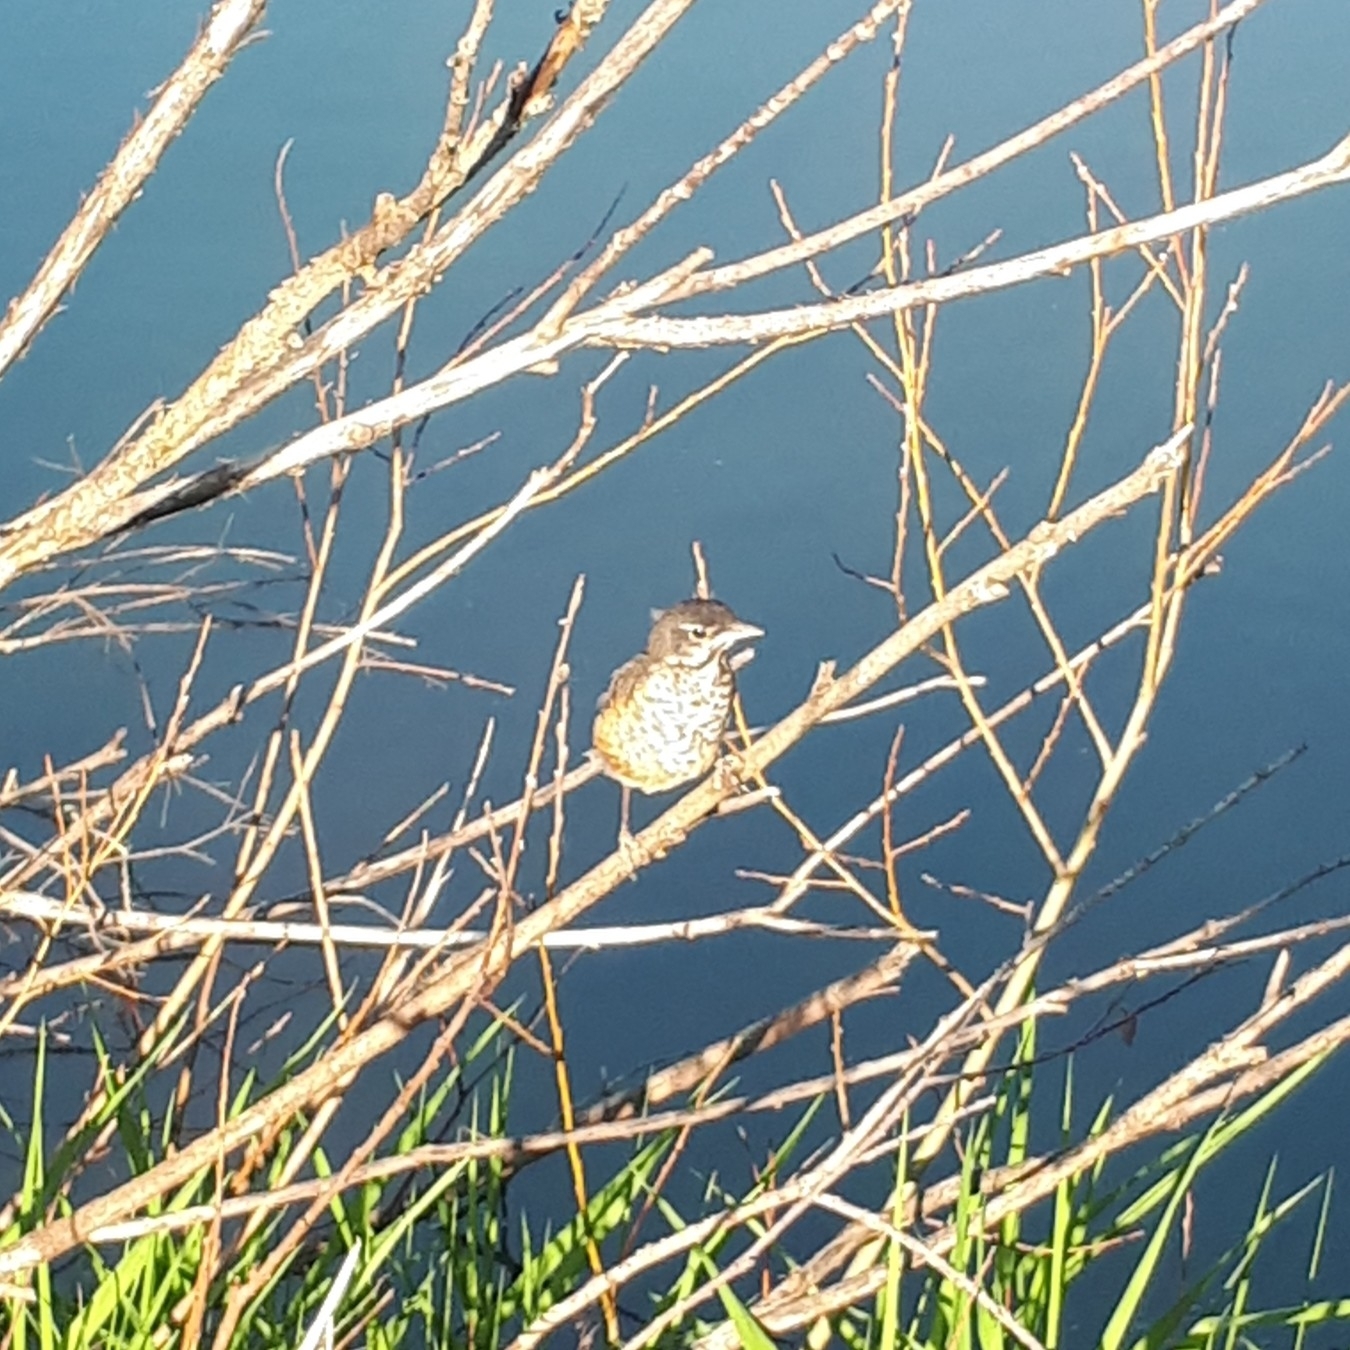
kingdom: Animalia
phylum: Chordata
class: Aves
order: Passeriformes
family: Turdidae
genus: Turdus
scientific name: Turdus migratorius
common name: American robin
